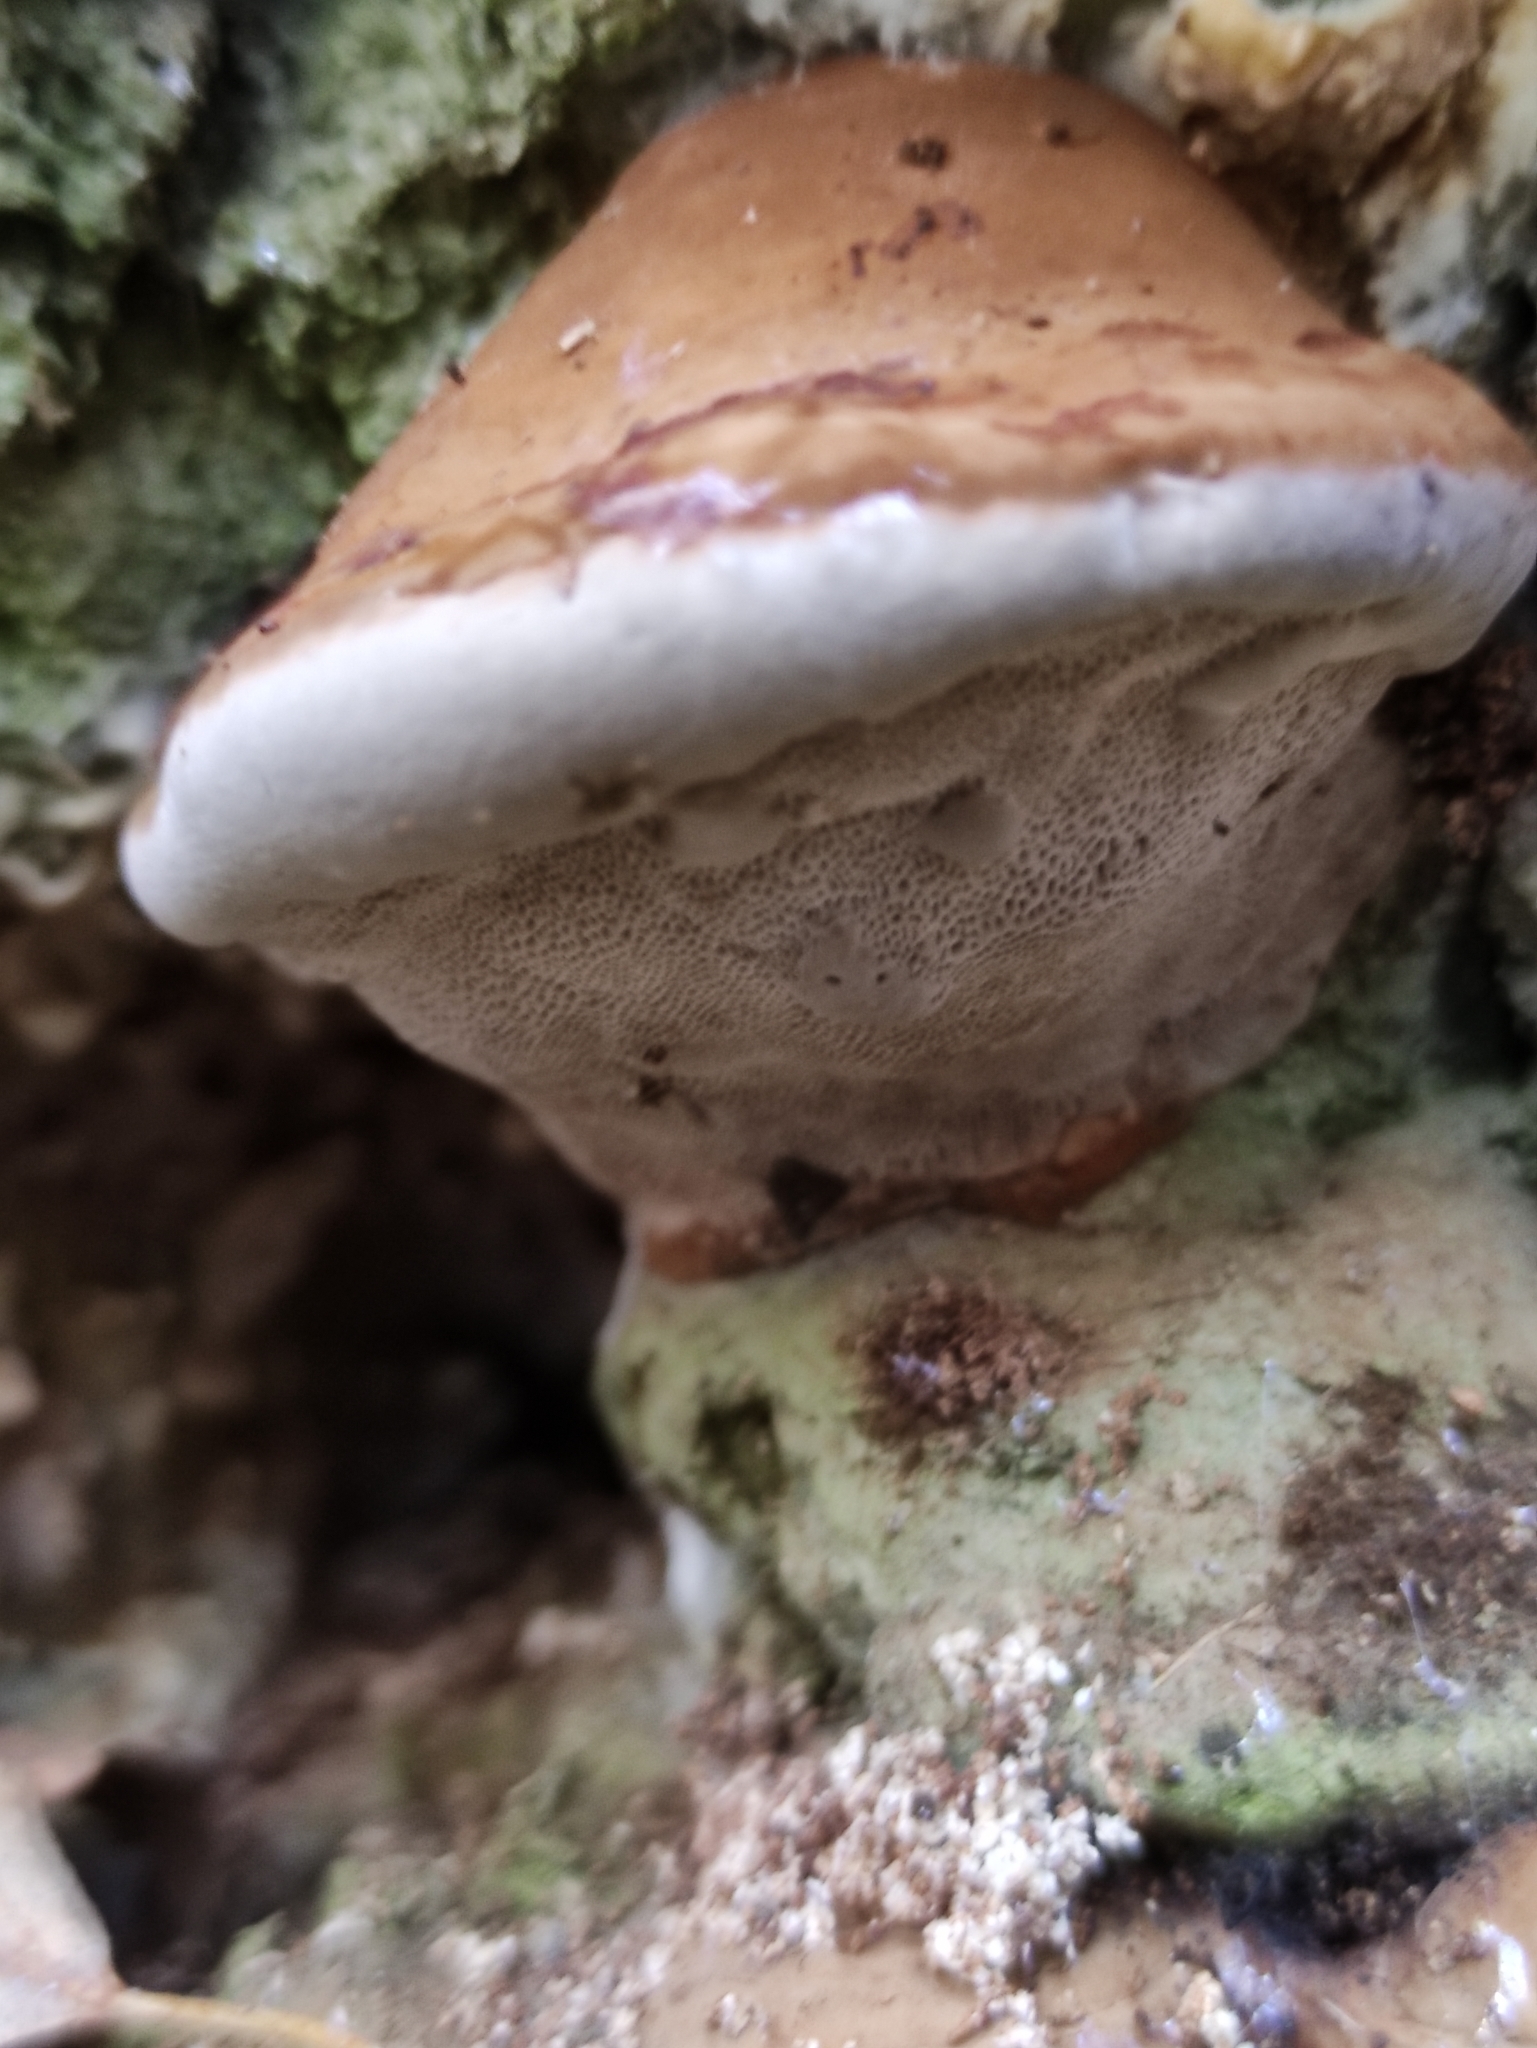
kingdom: Fungi
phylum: Basidiomycota
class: Agaricomycetes
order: Polyporales
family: Polyporaceae
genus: Ganoderma
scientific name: Ganoderma applanatum
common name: Artist's bracket
